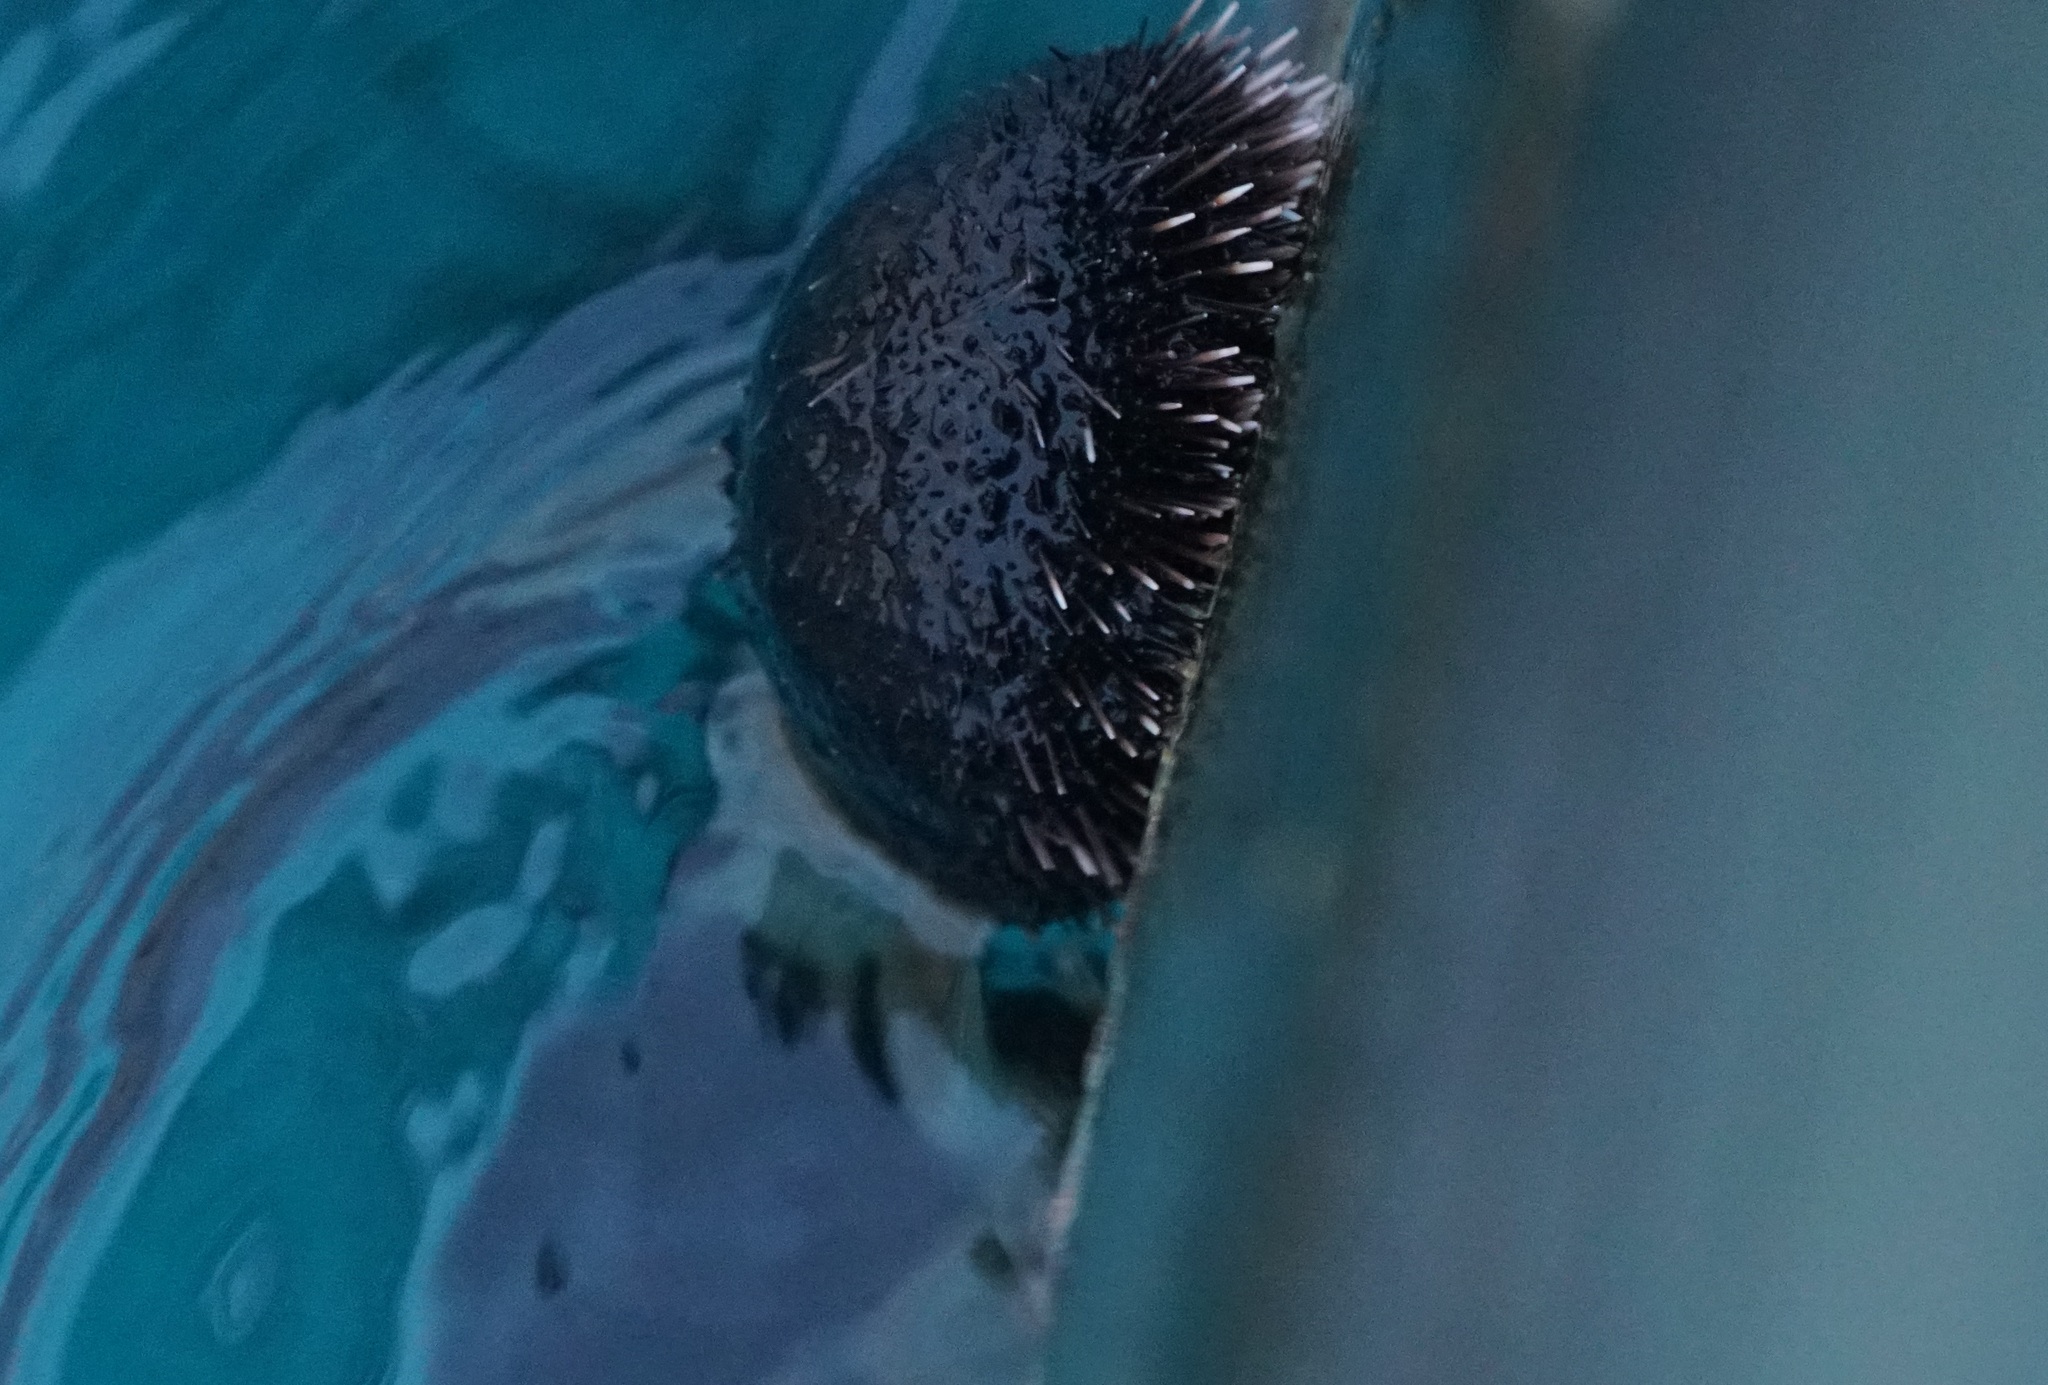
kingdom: Animalia
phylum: Echinodermata
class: Echinoidea
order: Camarodonta
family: Toxopneustidae
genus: Tripneustes
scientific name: Tripneustes gratilla
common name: Bischofsmützenseeigel
